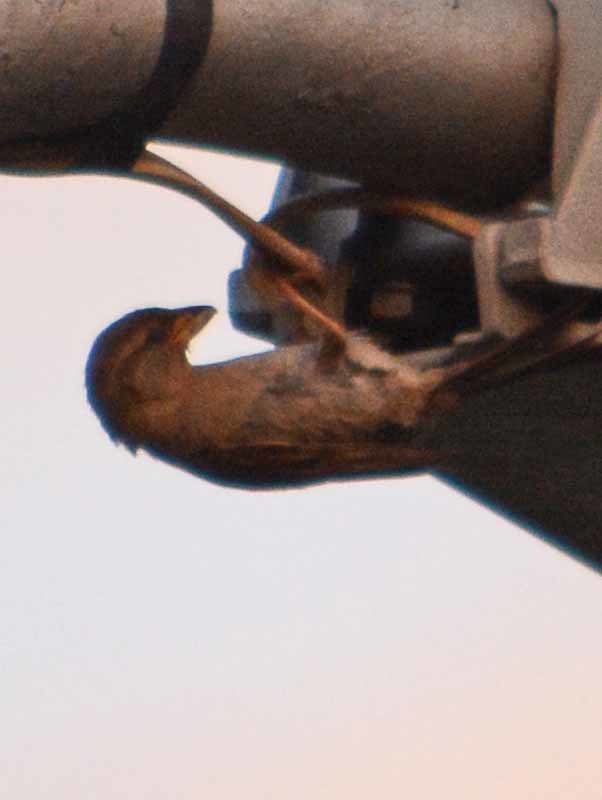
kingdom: Animalia
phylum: Chordata
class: Aves
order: Passeriformes
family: Passeridae
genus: Passer
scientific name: Passer domesticus
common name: House sparrow
